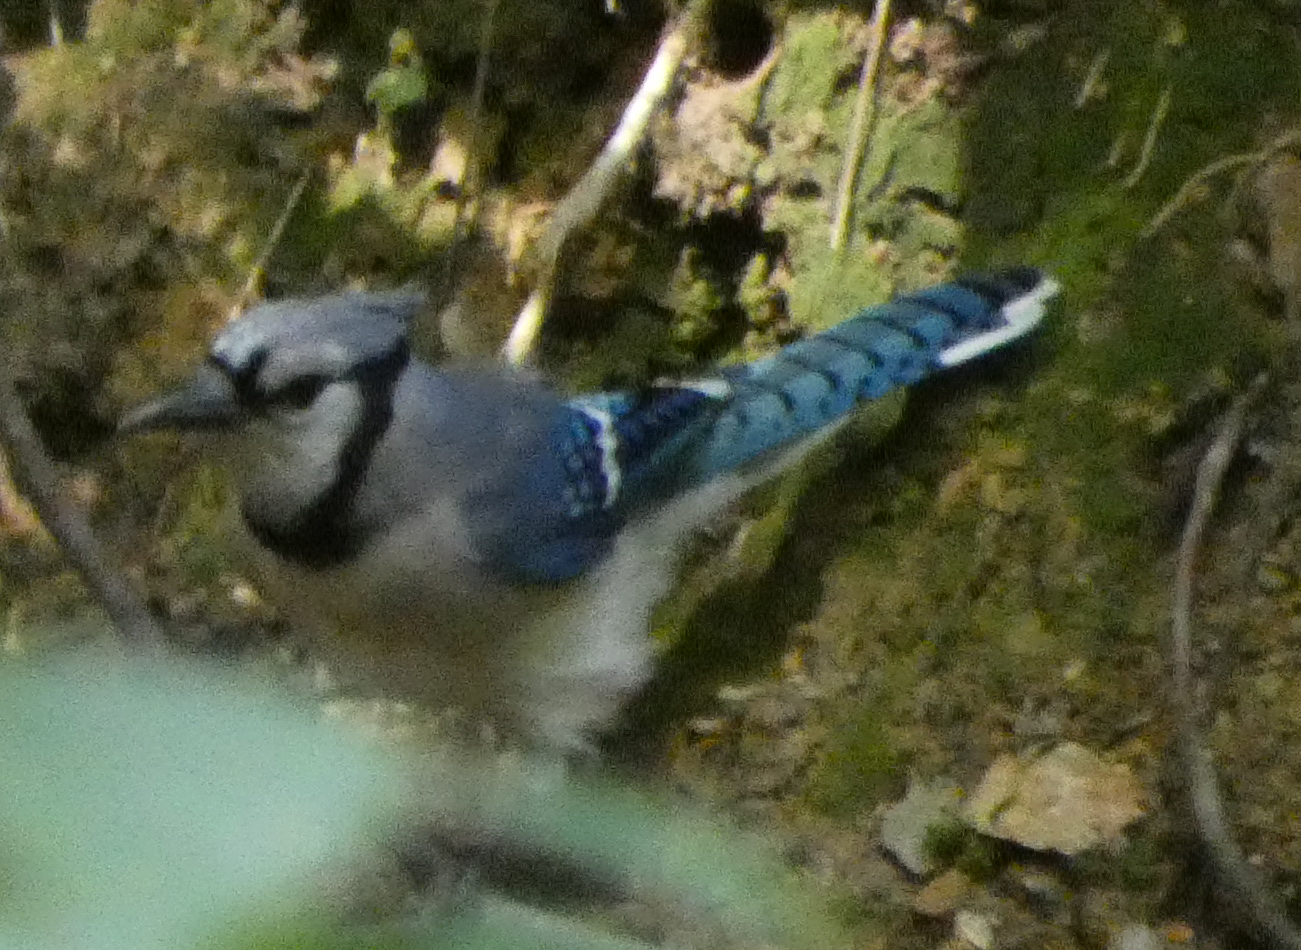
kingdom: Animalia
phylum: Chordata
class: Aves
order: Passeriformes
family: Corvidae
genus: Cyanocitta
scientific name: Cyanocitta cristata
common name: Blue jay
